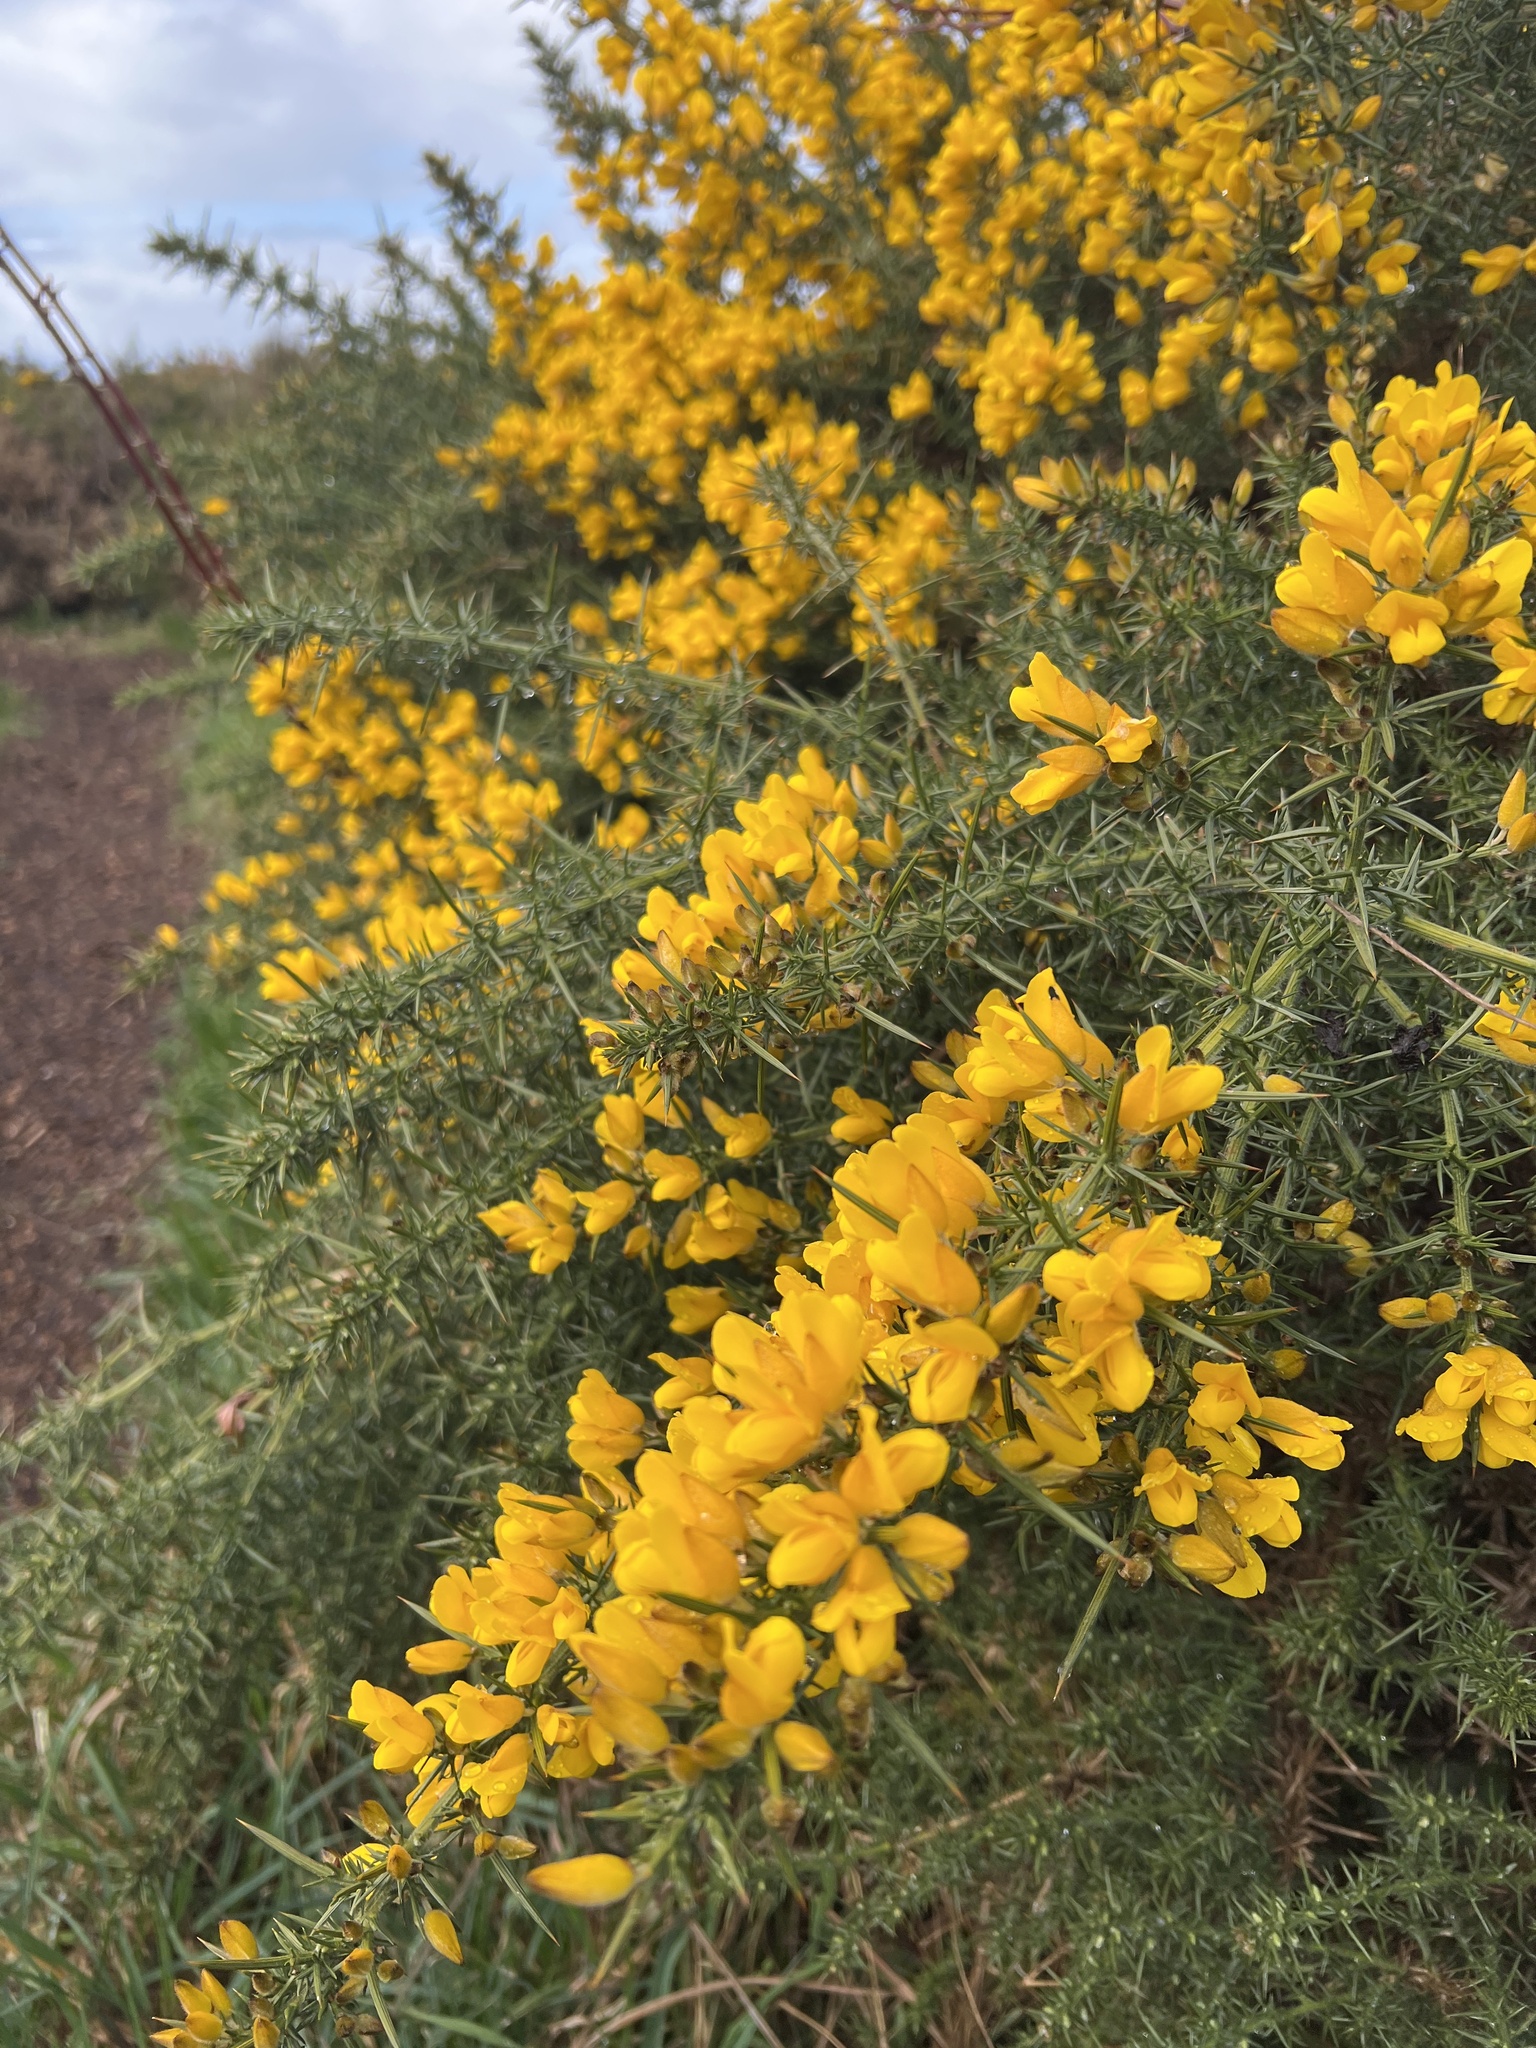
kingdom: Plantae
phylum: Tracheophyta
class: Magnoliopsida
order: Fabales
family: Fabaceae
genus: Ulex
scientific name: Ulex europaeus
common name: Common gorse
